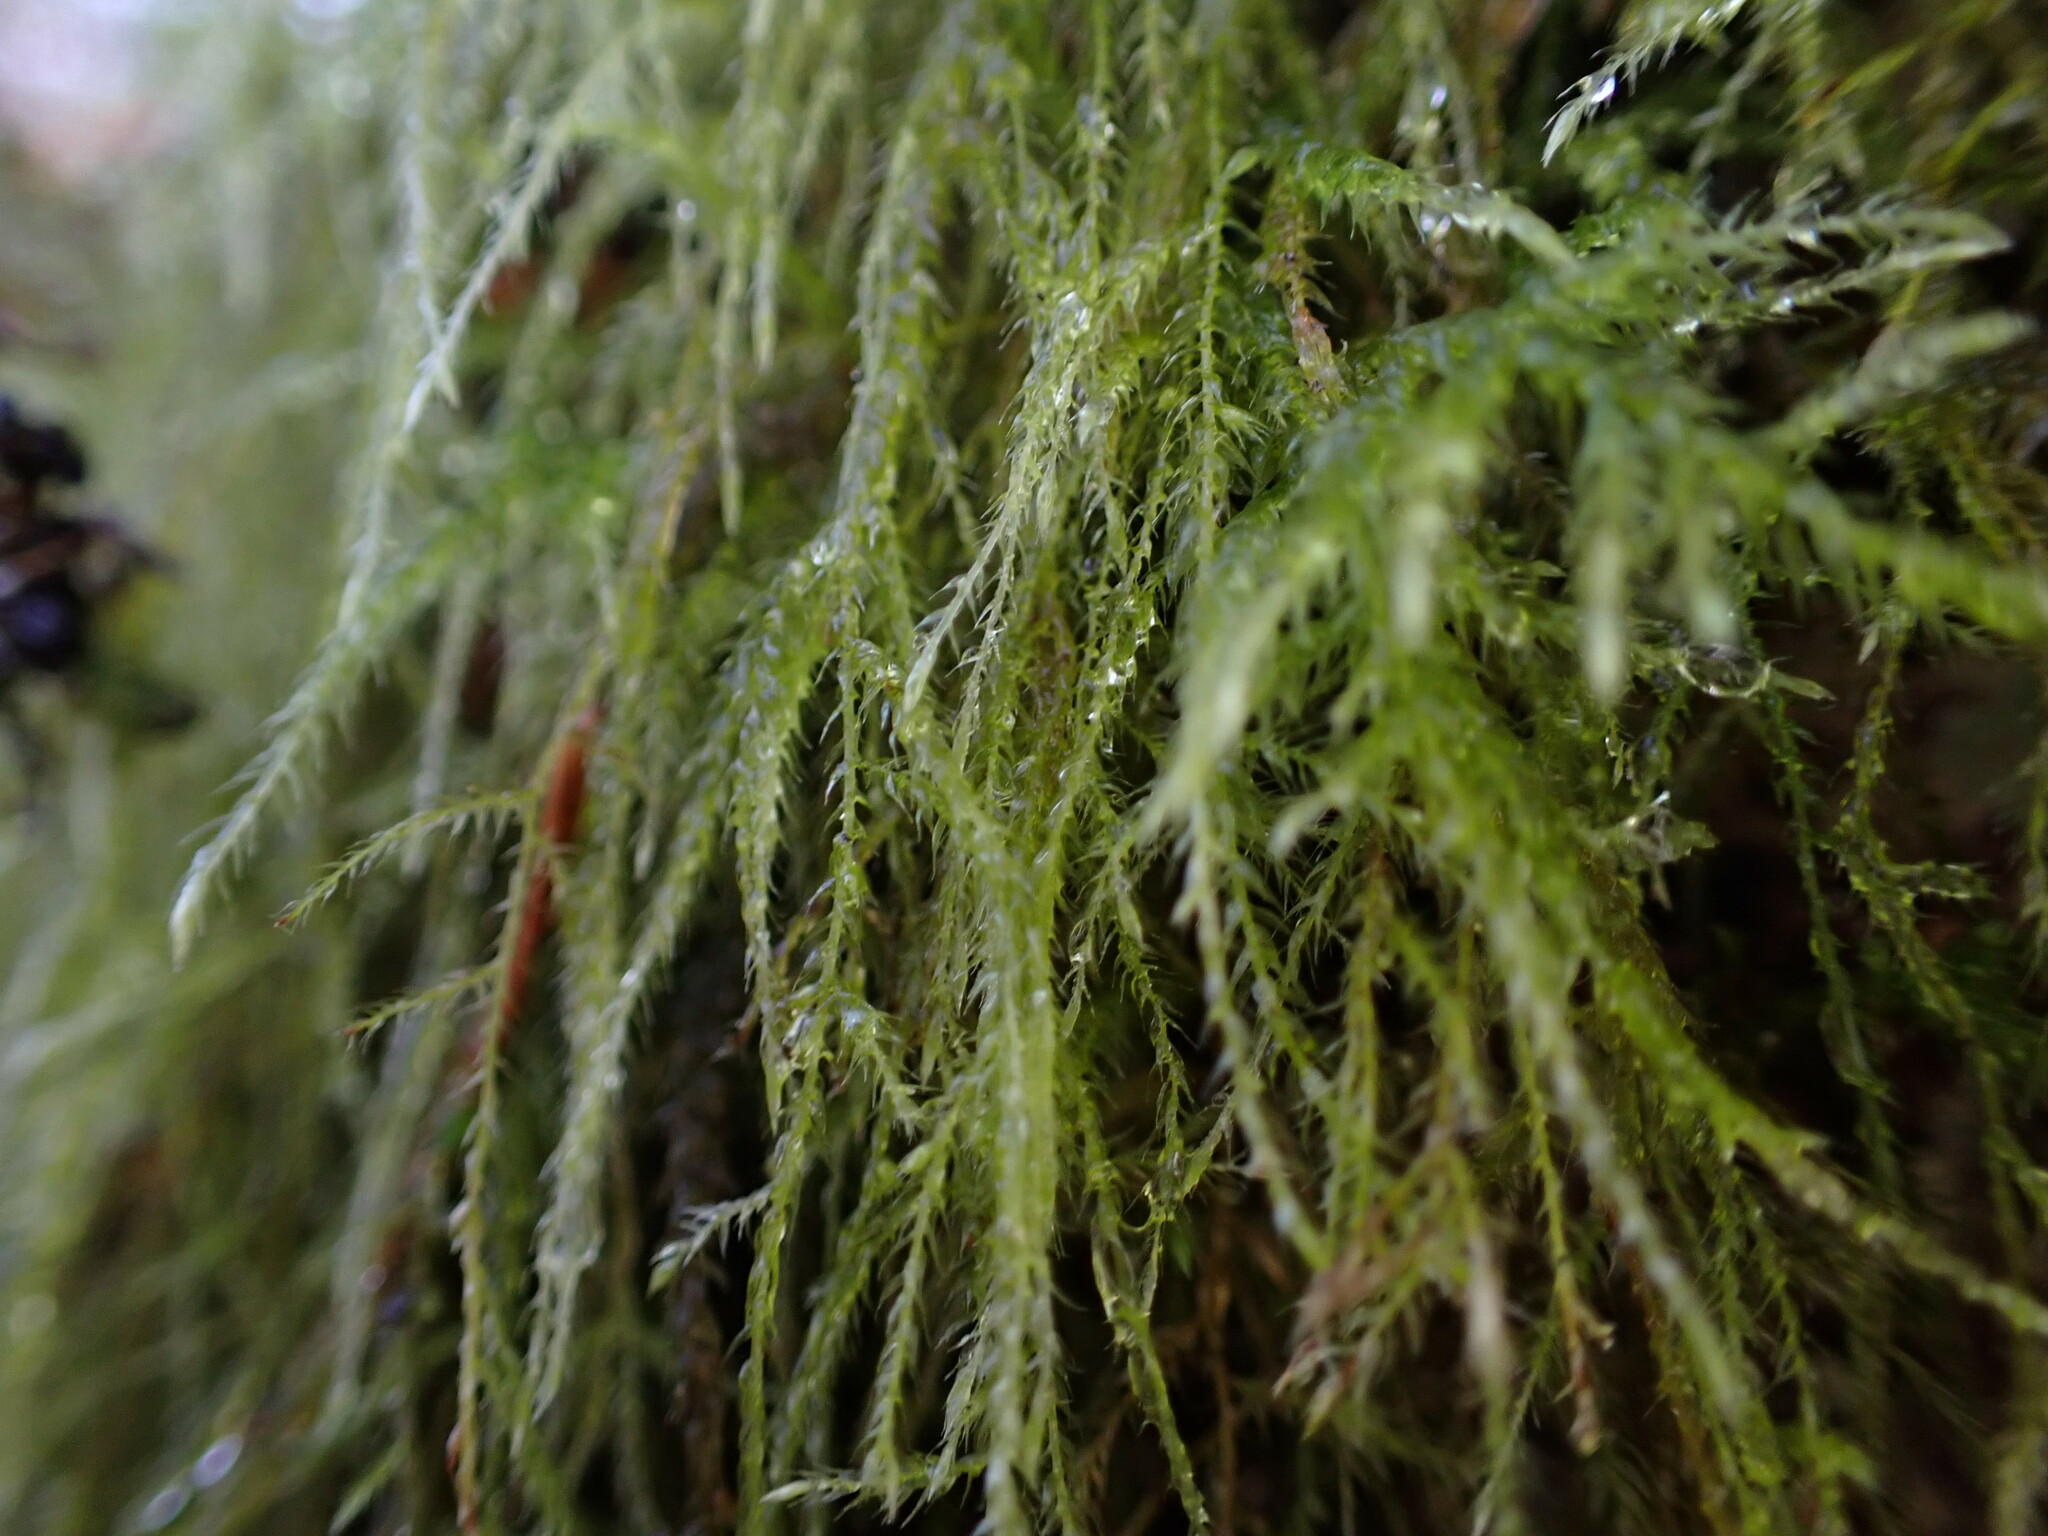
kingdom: Plantae
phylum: Bryophyta
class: Bryopsida
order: Hypnales
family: Lembophyllaceae
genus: Pseudisothecium
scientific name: Pseudisothecium stoloniferum
